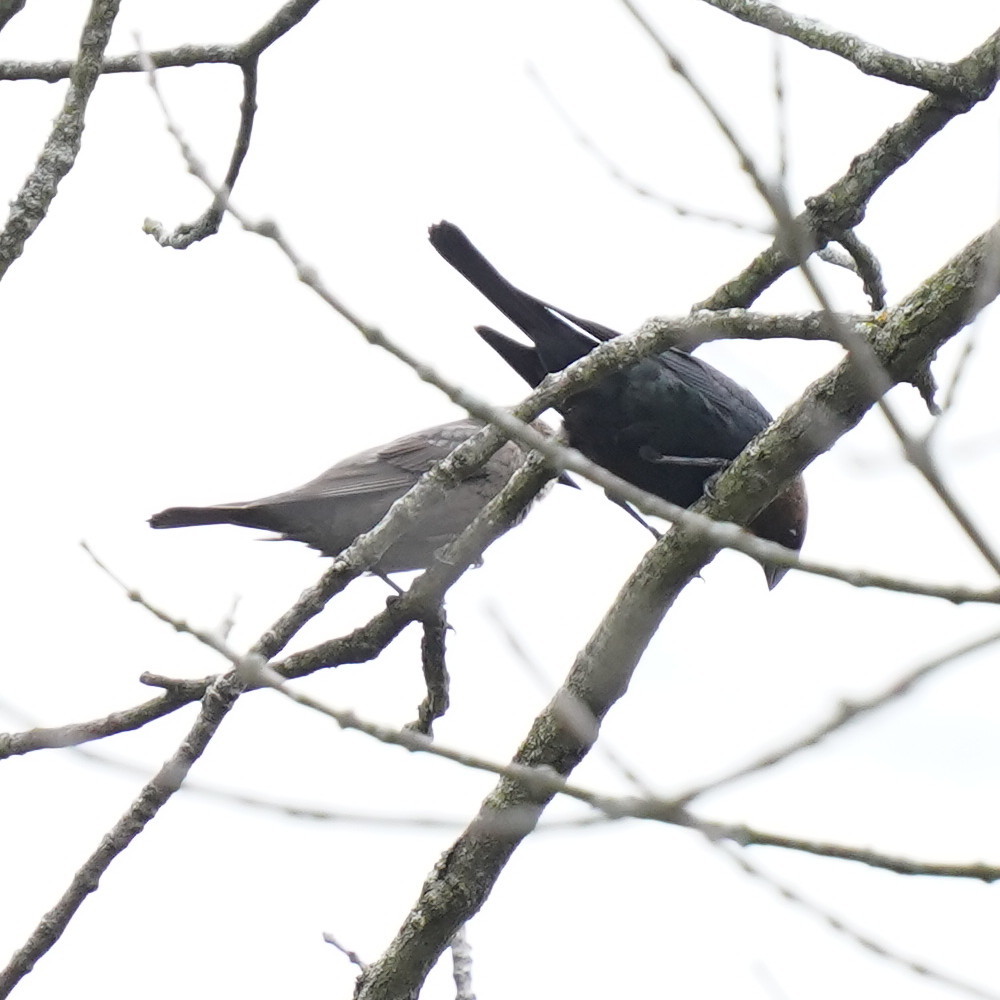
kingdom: Animalia
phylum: Chordata
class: Aves
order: Passeriformes
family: Icteridae
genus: Molothrus
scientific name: Molothrus ater
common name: Brown-headed cowbird
